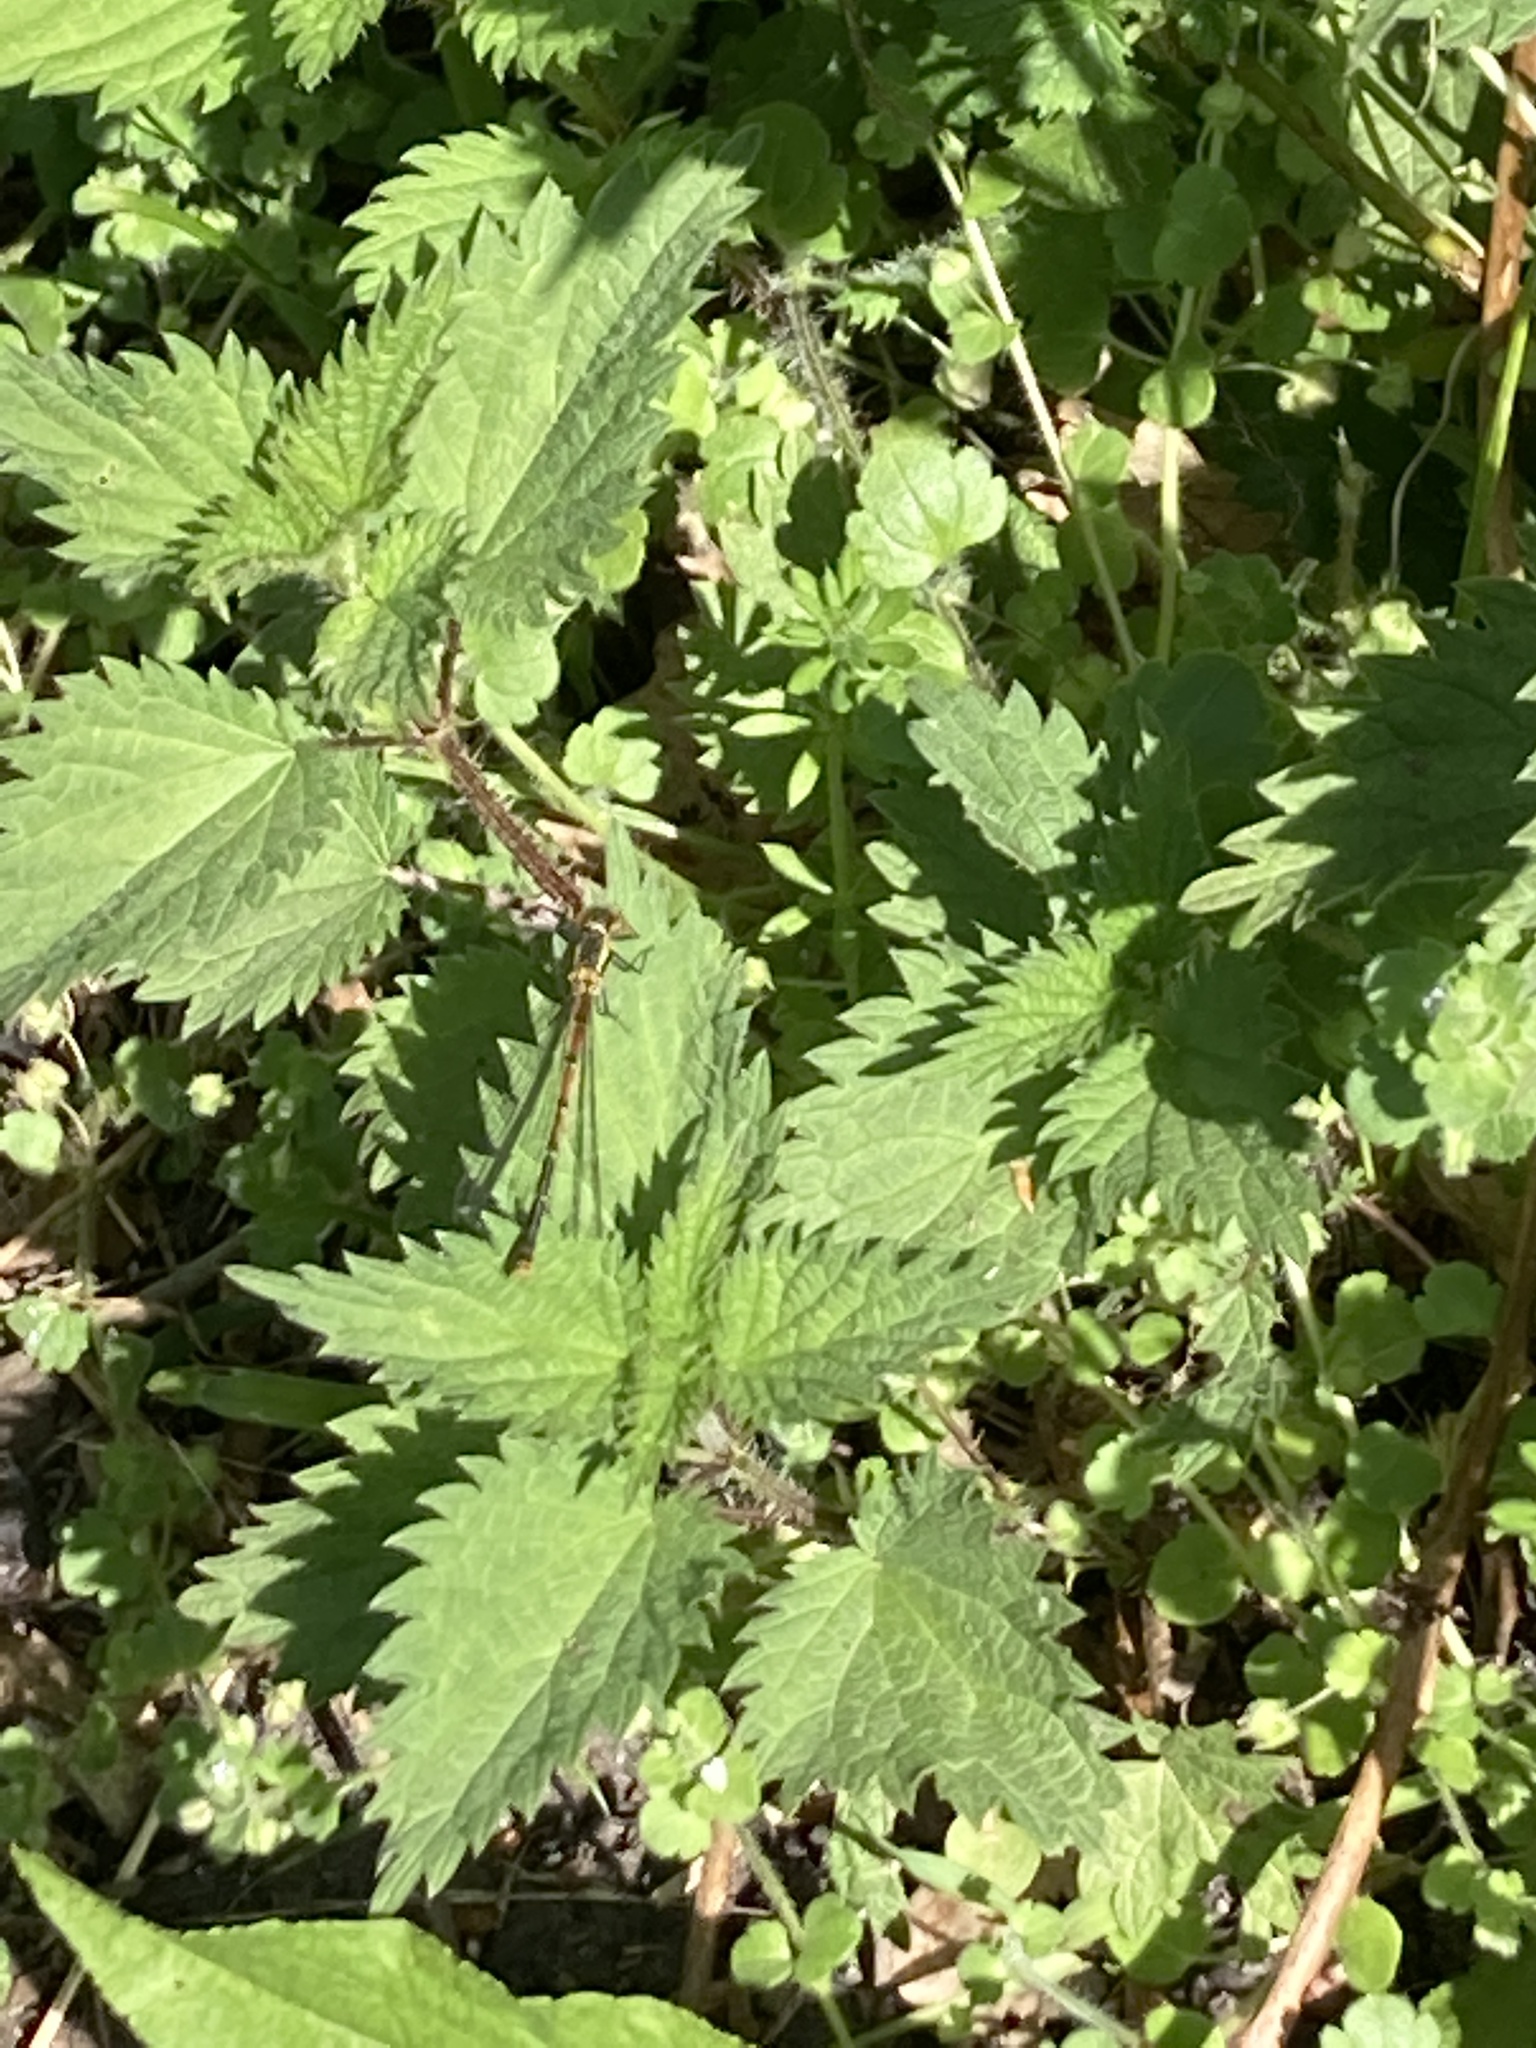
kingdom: Animalia
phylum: Arthropoda
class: Insecta
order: Odonata
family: Coenagrionidae
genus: Pyrrhosoma
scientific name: Pyrrhosoma nymphula
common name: Large red damsel
